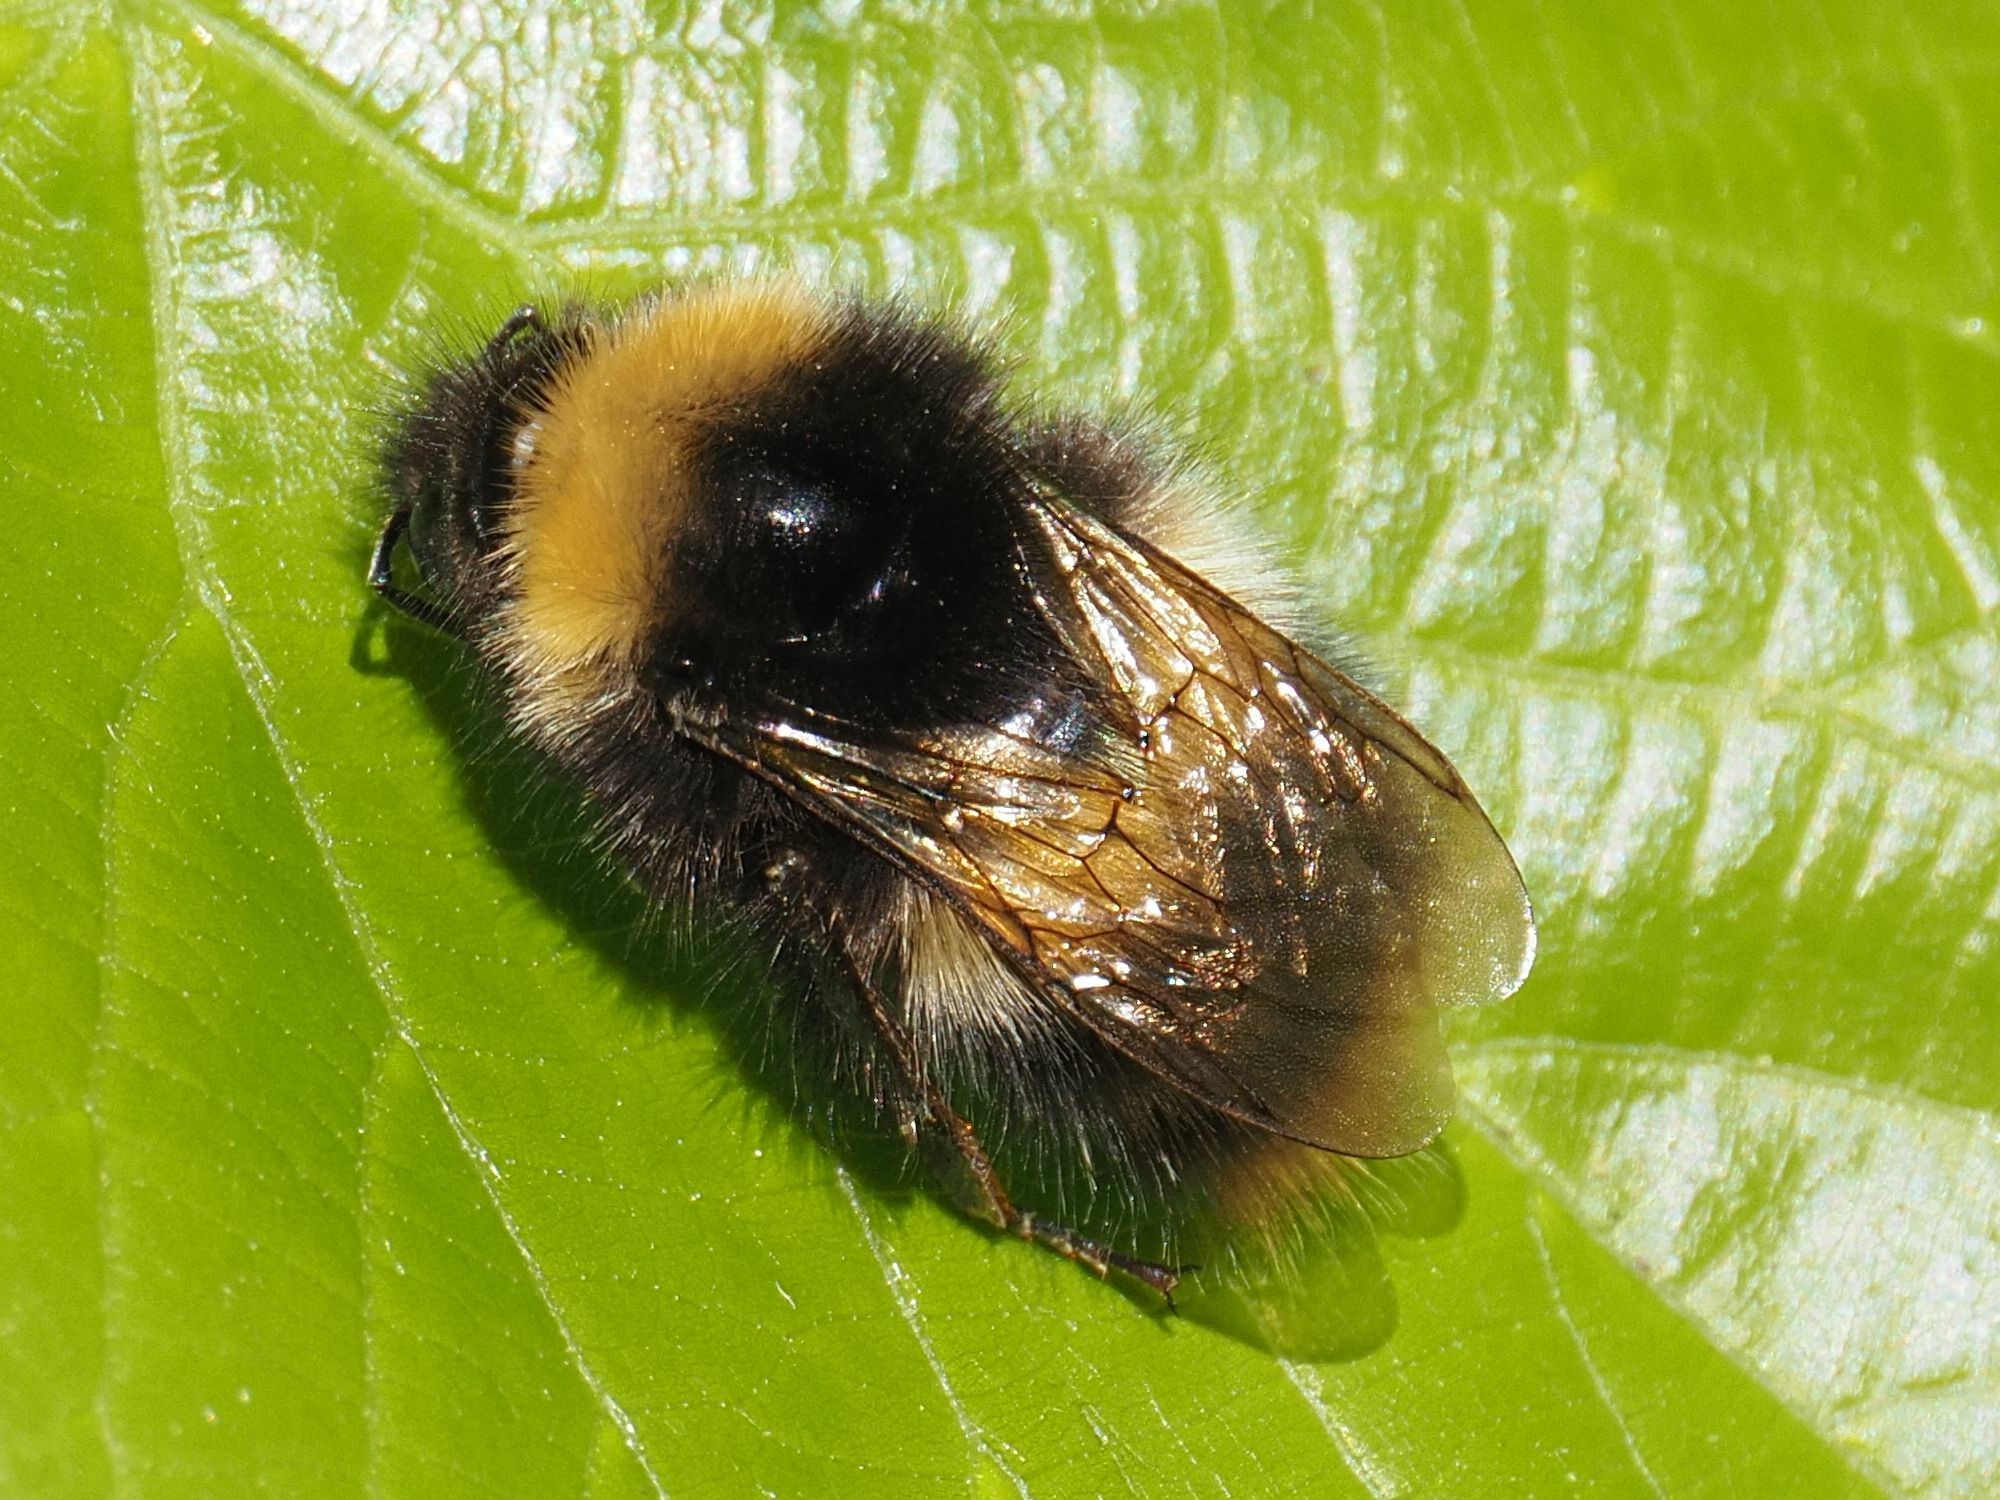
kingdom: Animalia
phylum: Arthropoda
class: Insecta
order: Hymenoptera
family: Apidae
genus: Bombus
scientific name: Bombus pratorum
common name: Early humble-bee
